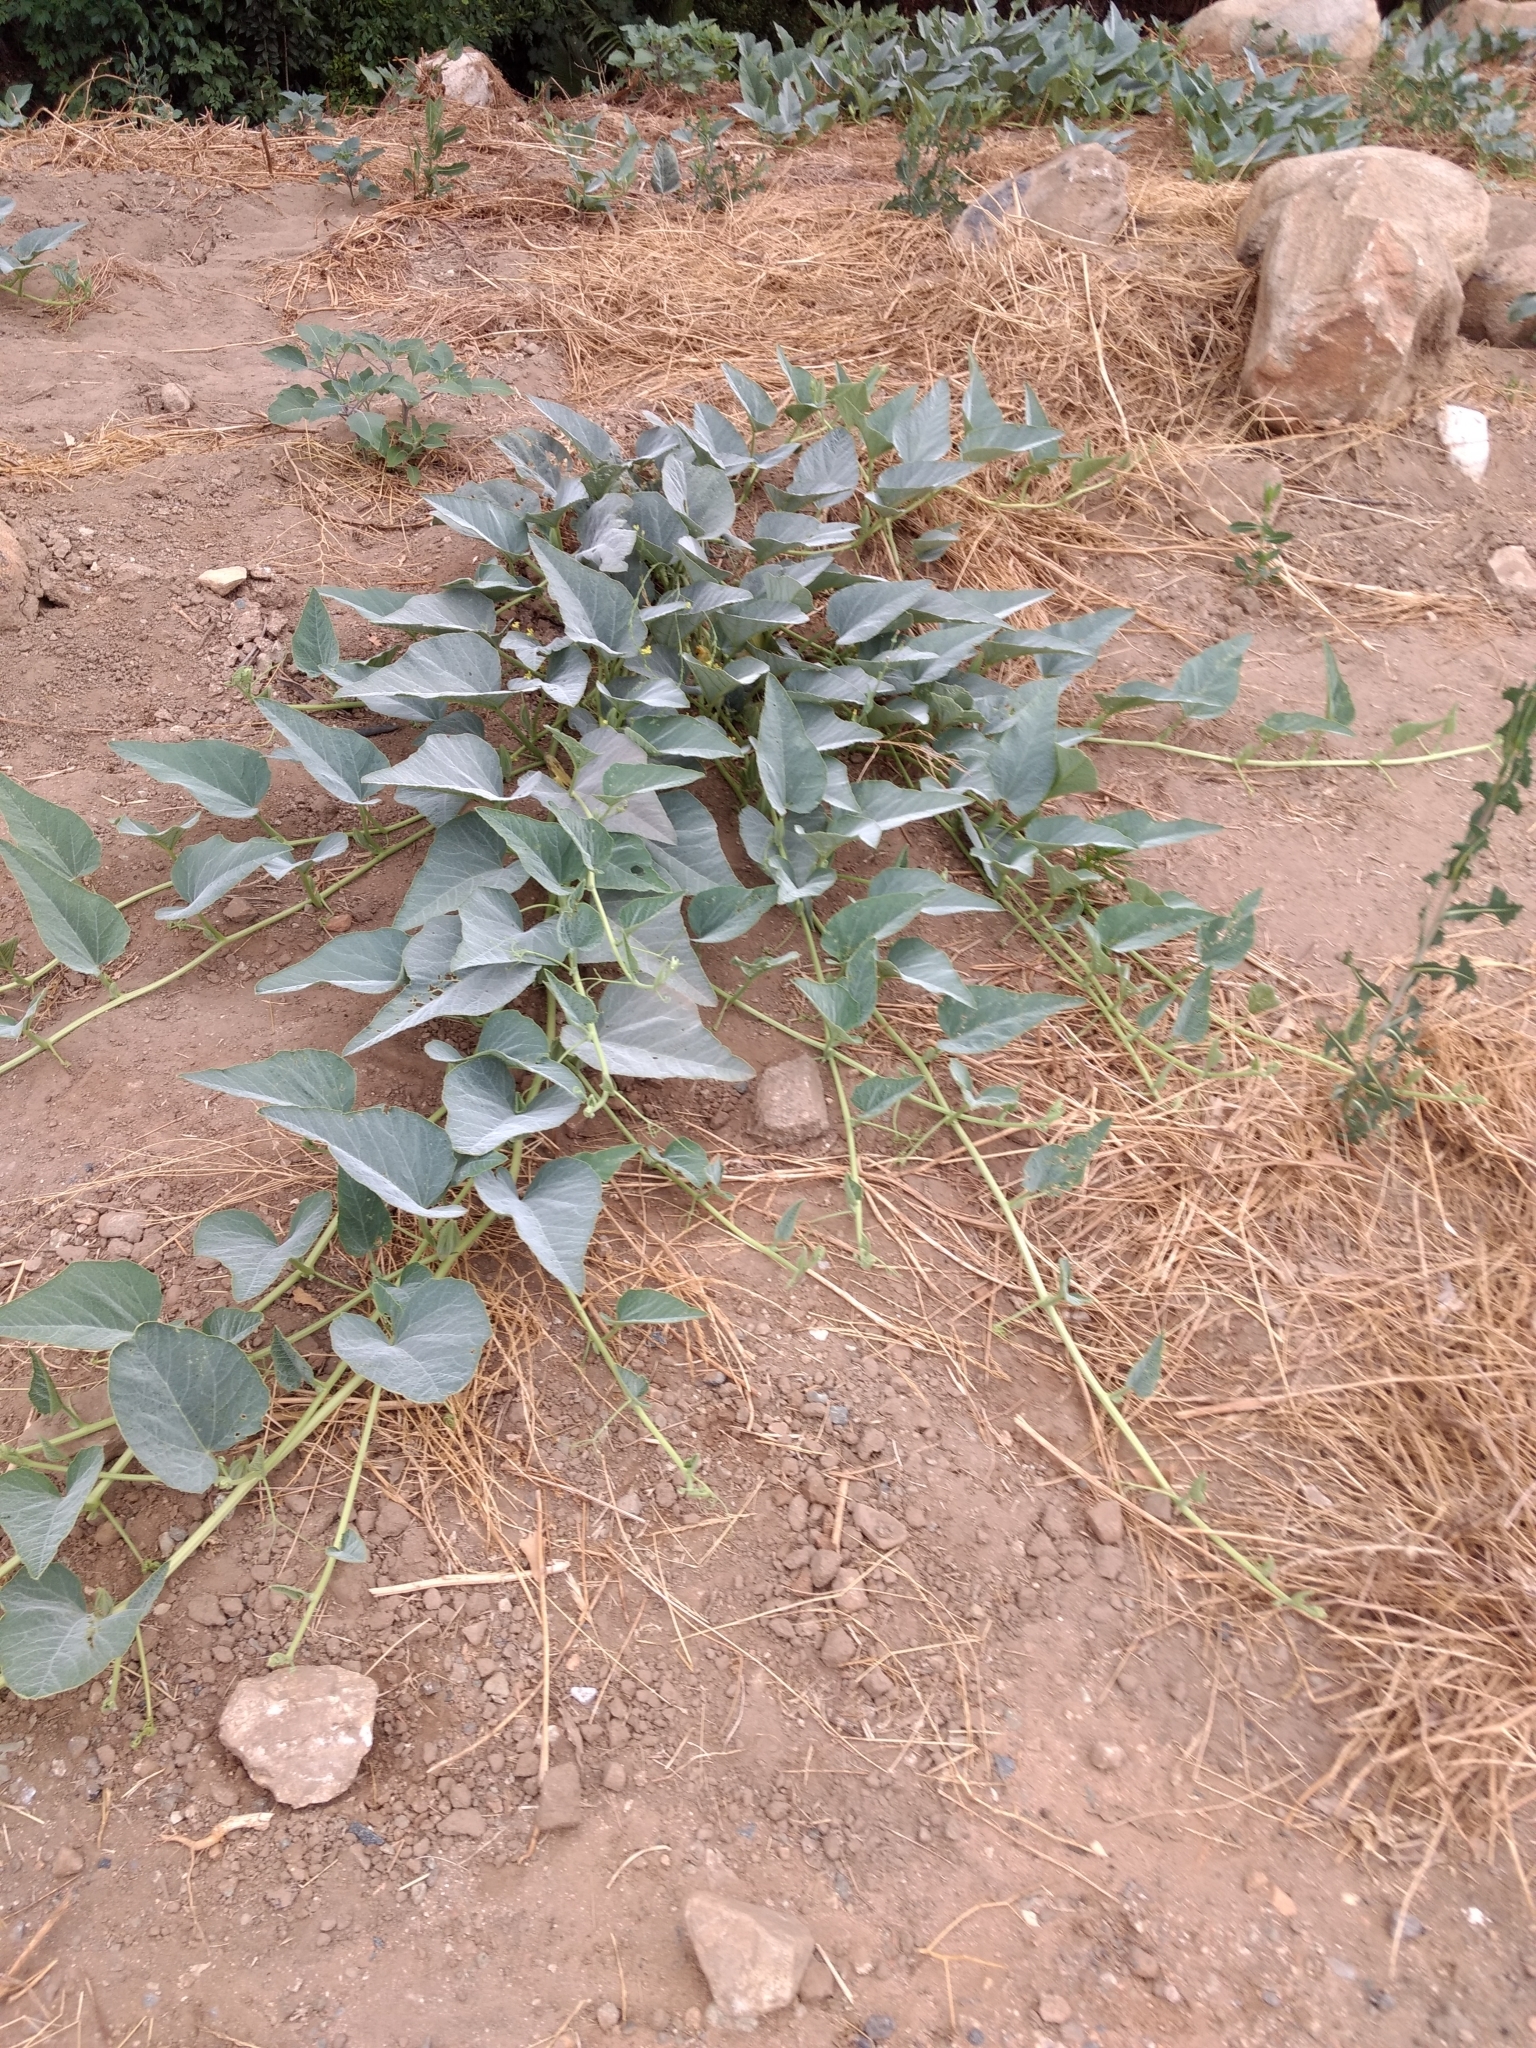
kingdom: Plantae
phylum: Tracheophyta
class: Magnoliopsida
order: Cucurbitales
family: Cucurbitaceae
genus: Cucurbita
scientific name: Cucurbita foetidissima
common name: Buffalo gourd
